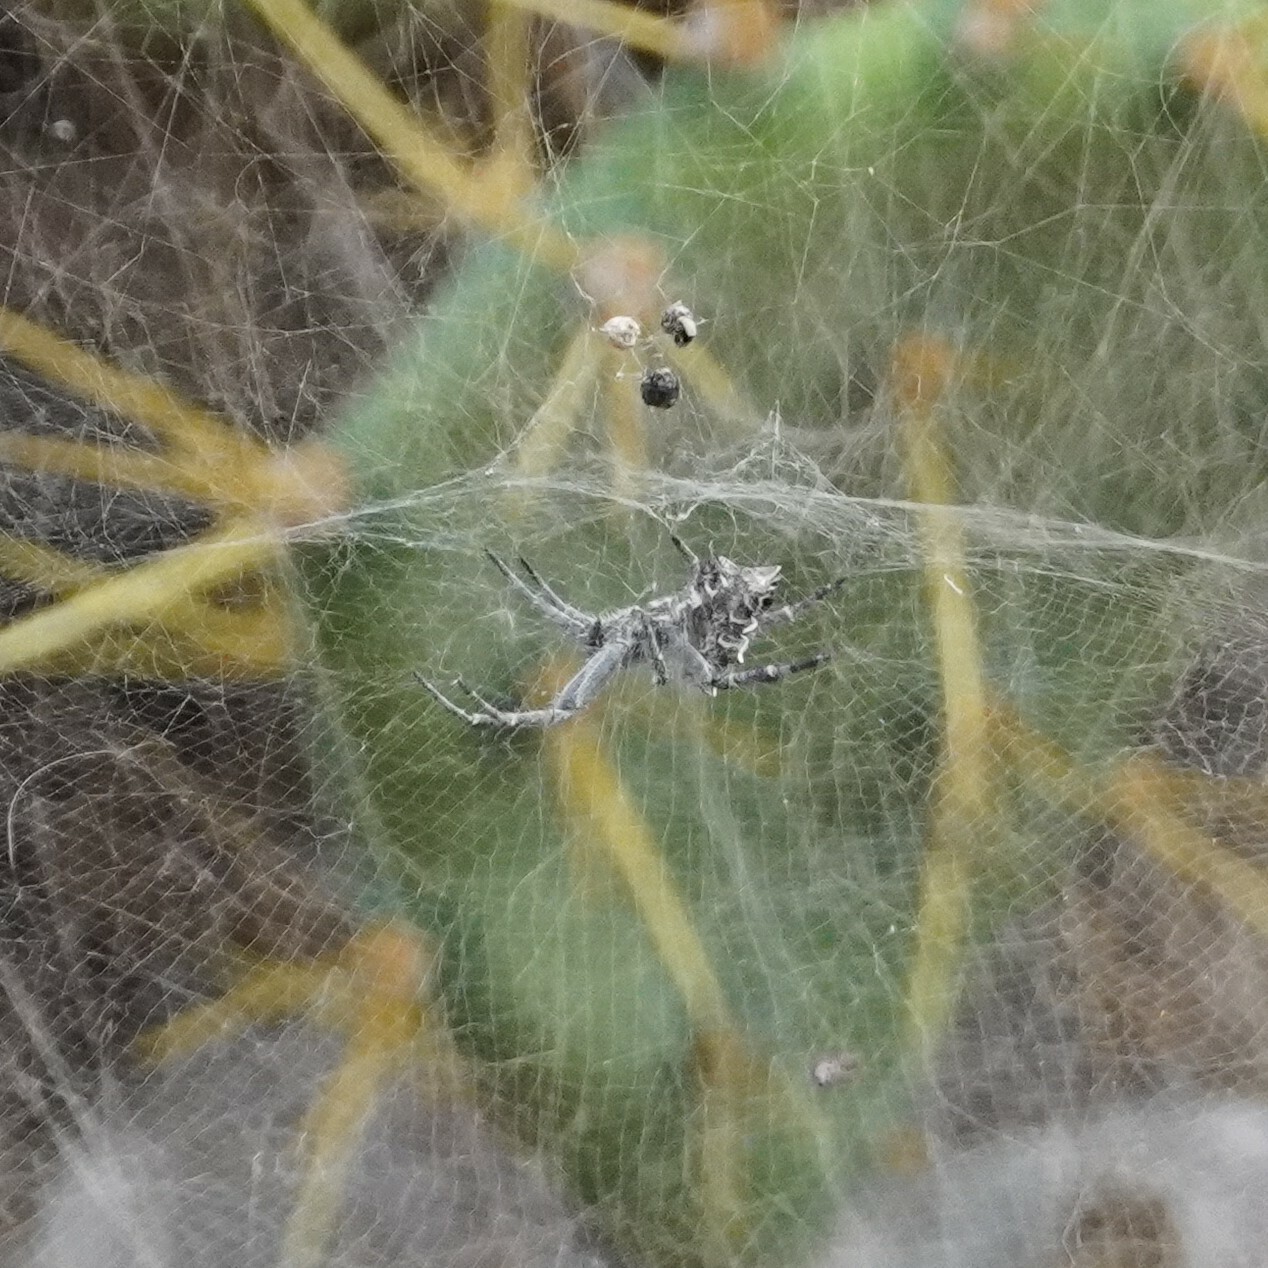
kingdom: Animalia
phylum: Arthropoda
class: Arachnida
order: Araneae
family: Araneidae
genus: Cyrtophora
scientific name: Cyrtophora citricola
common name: Orb weavers
